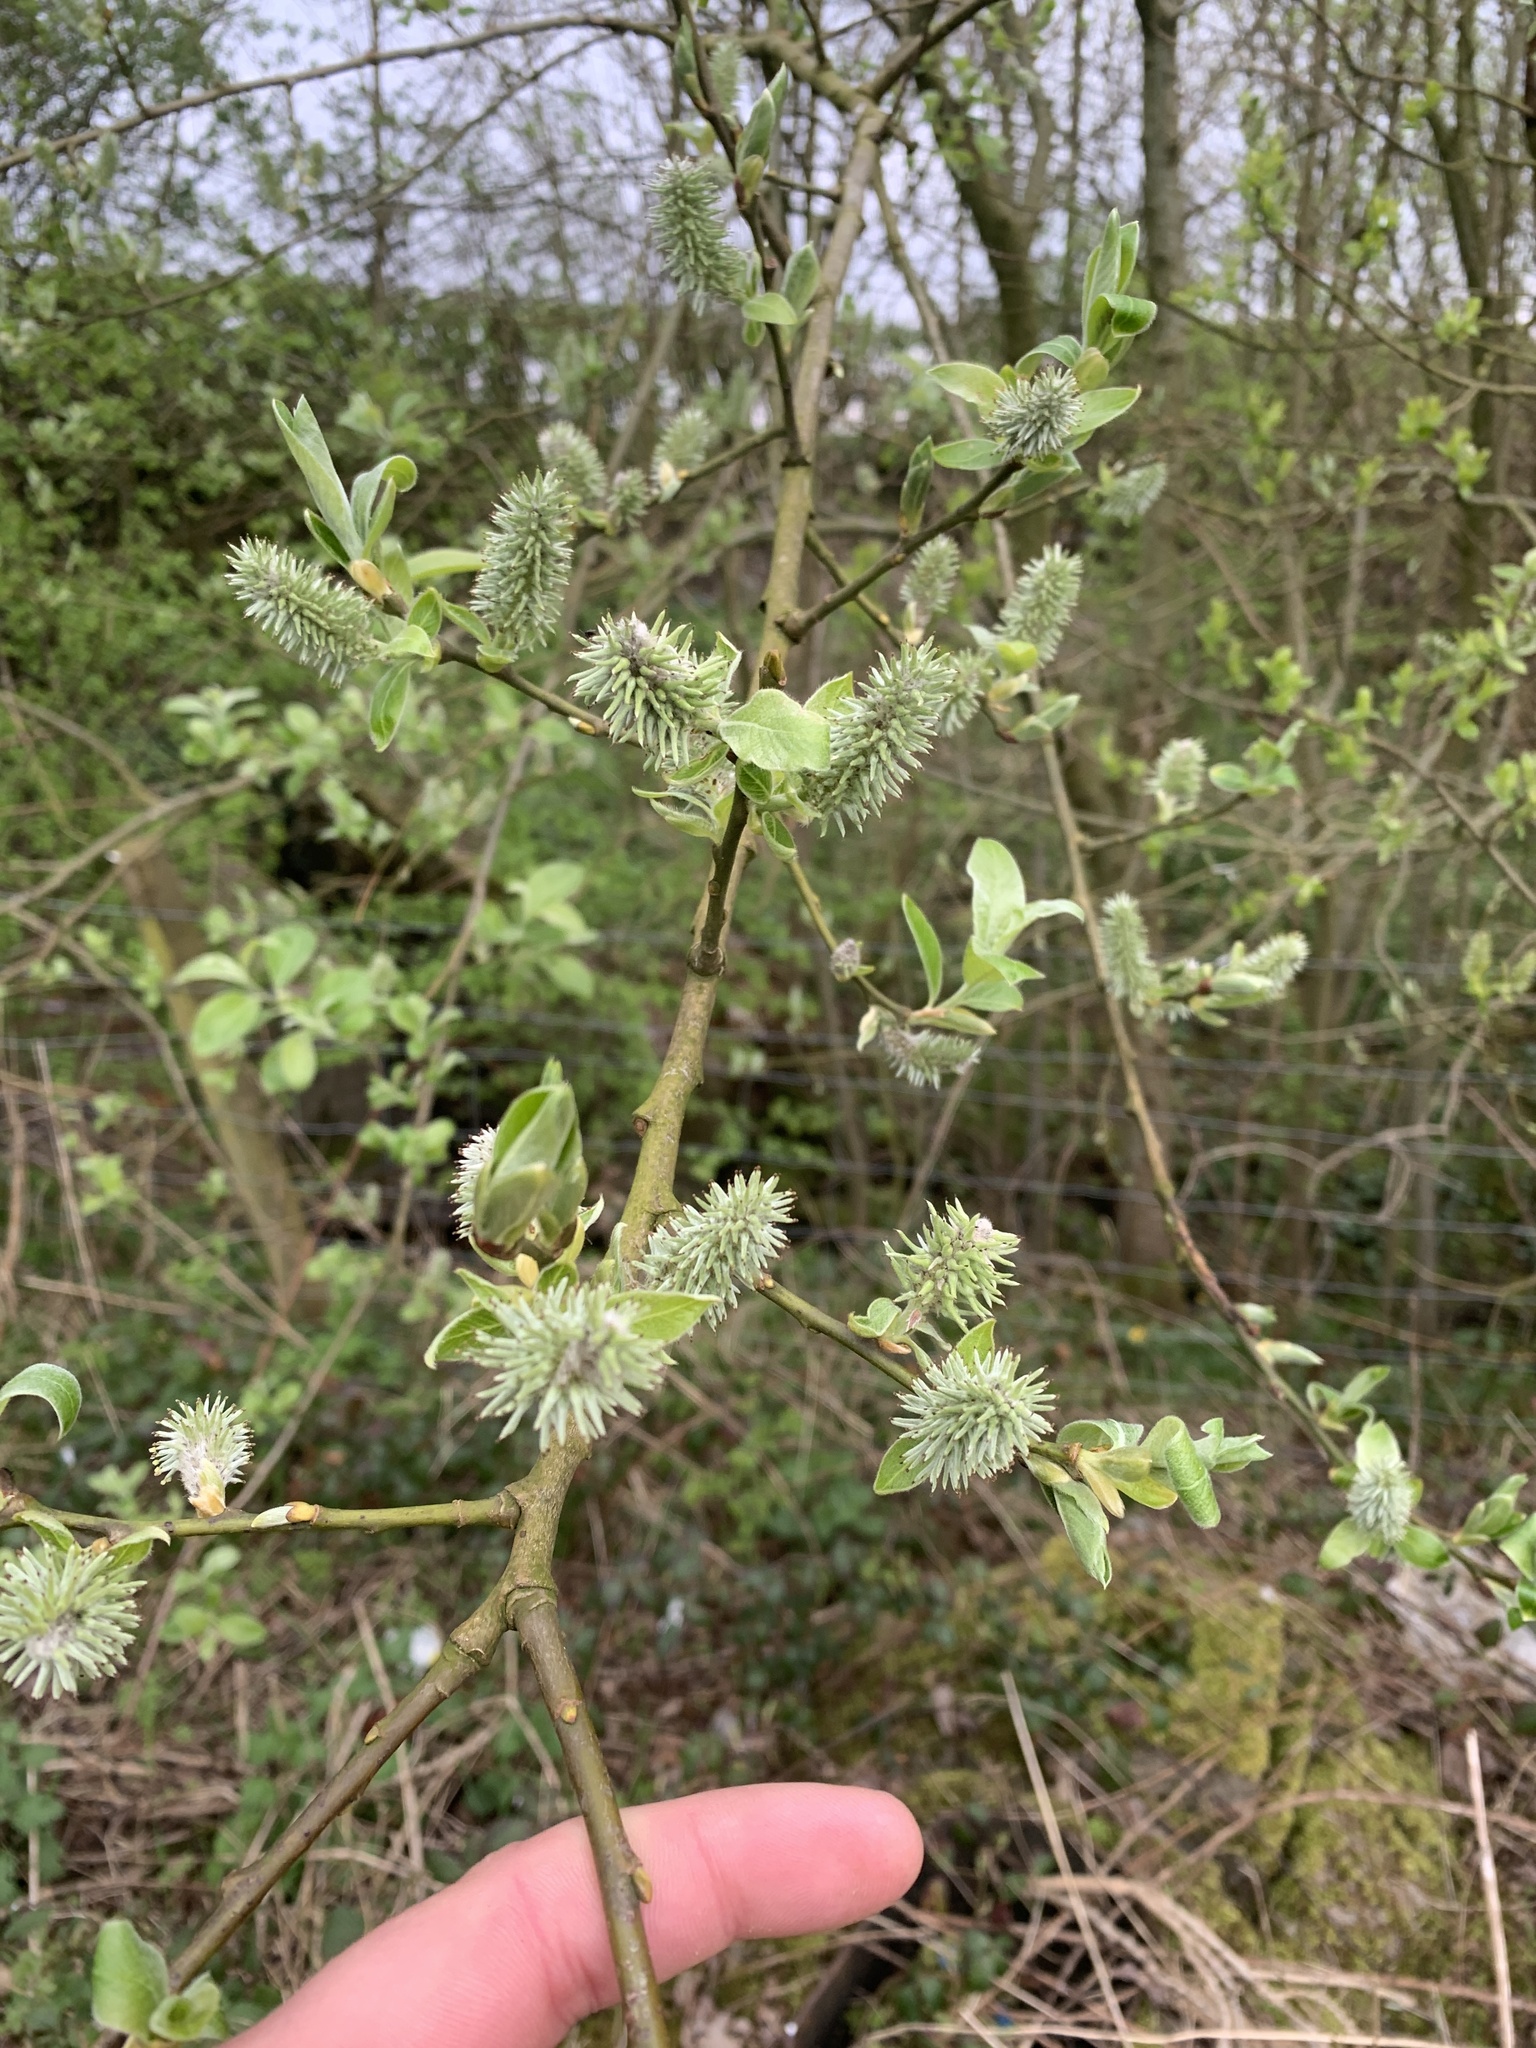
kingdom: Plantae
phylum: Tracheophyta
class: Magnoliopsida
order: Malpighiales
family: Salicaceae
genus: Salix
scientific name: Salix caprea
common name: Goat willow
